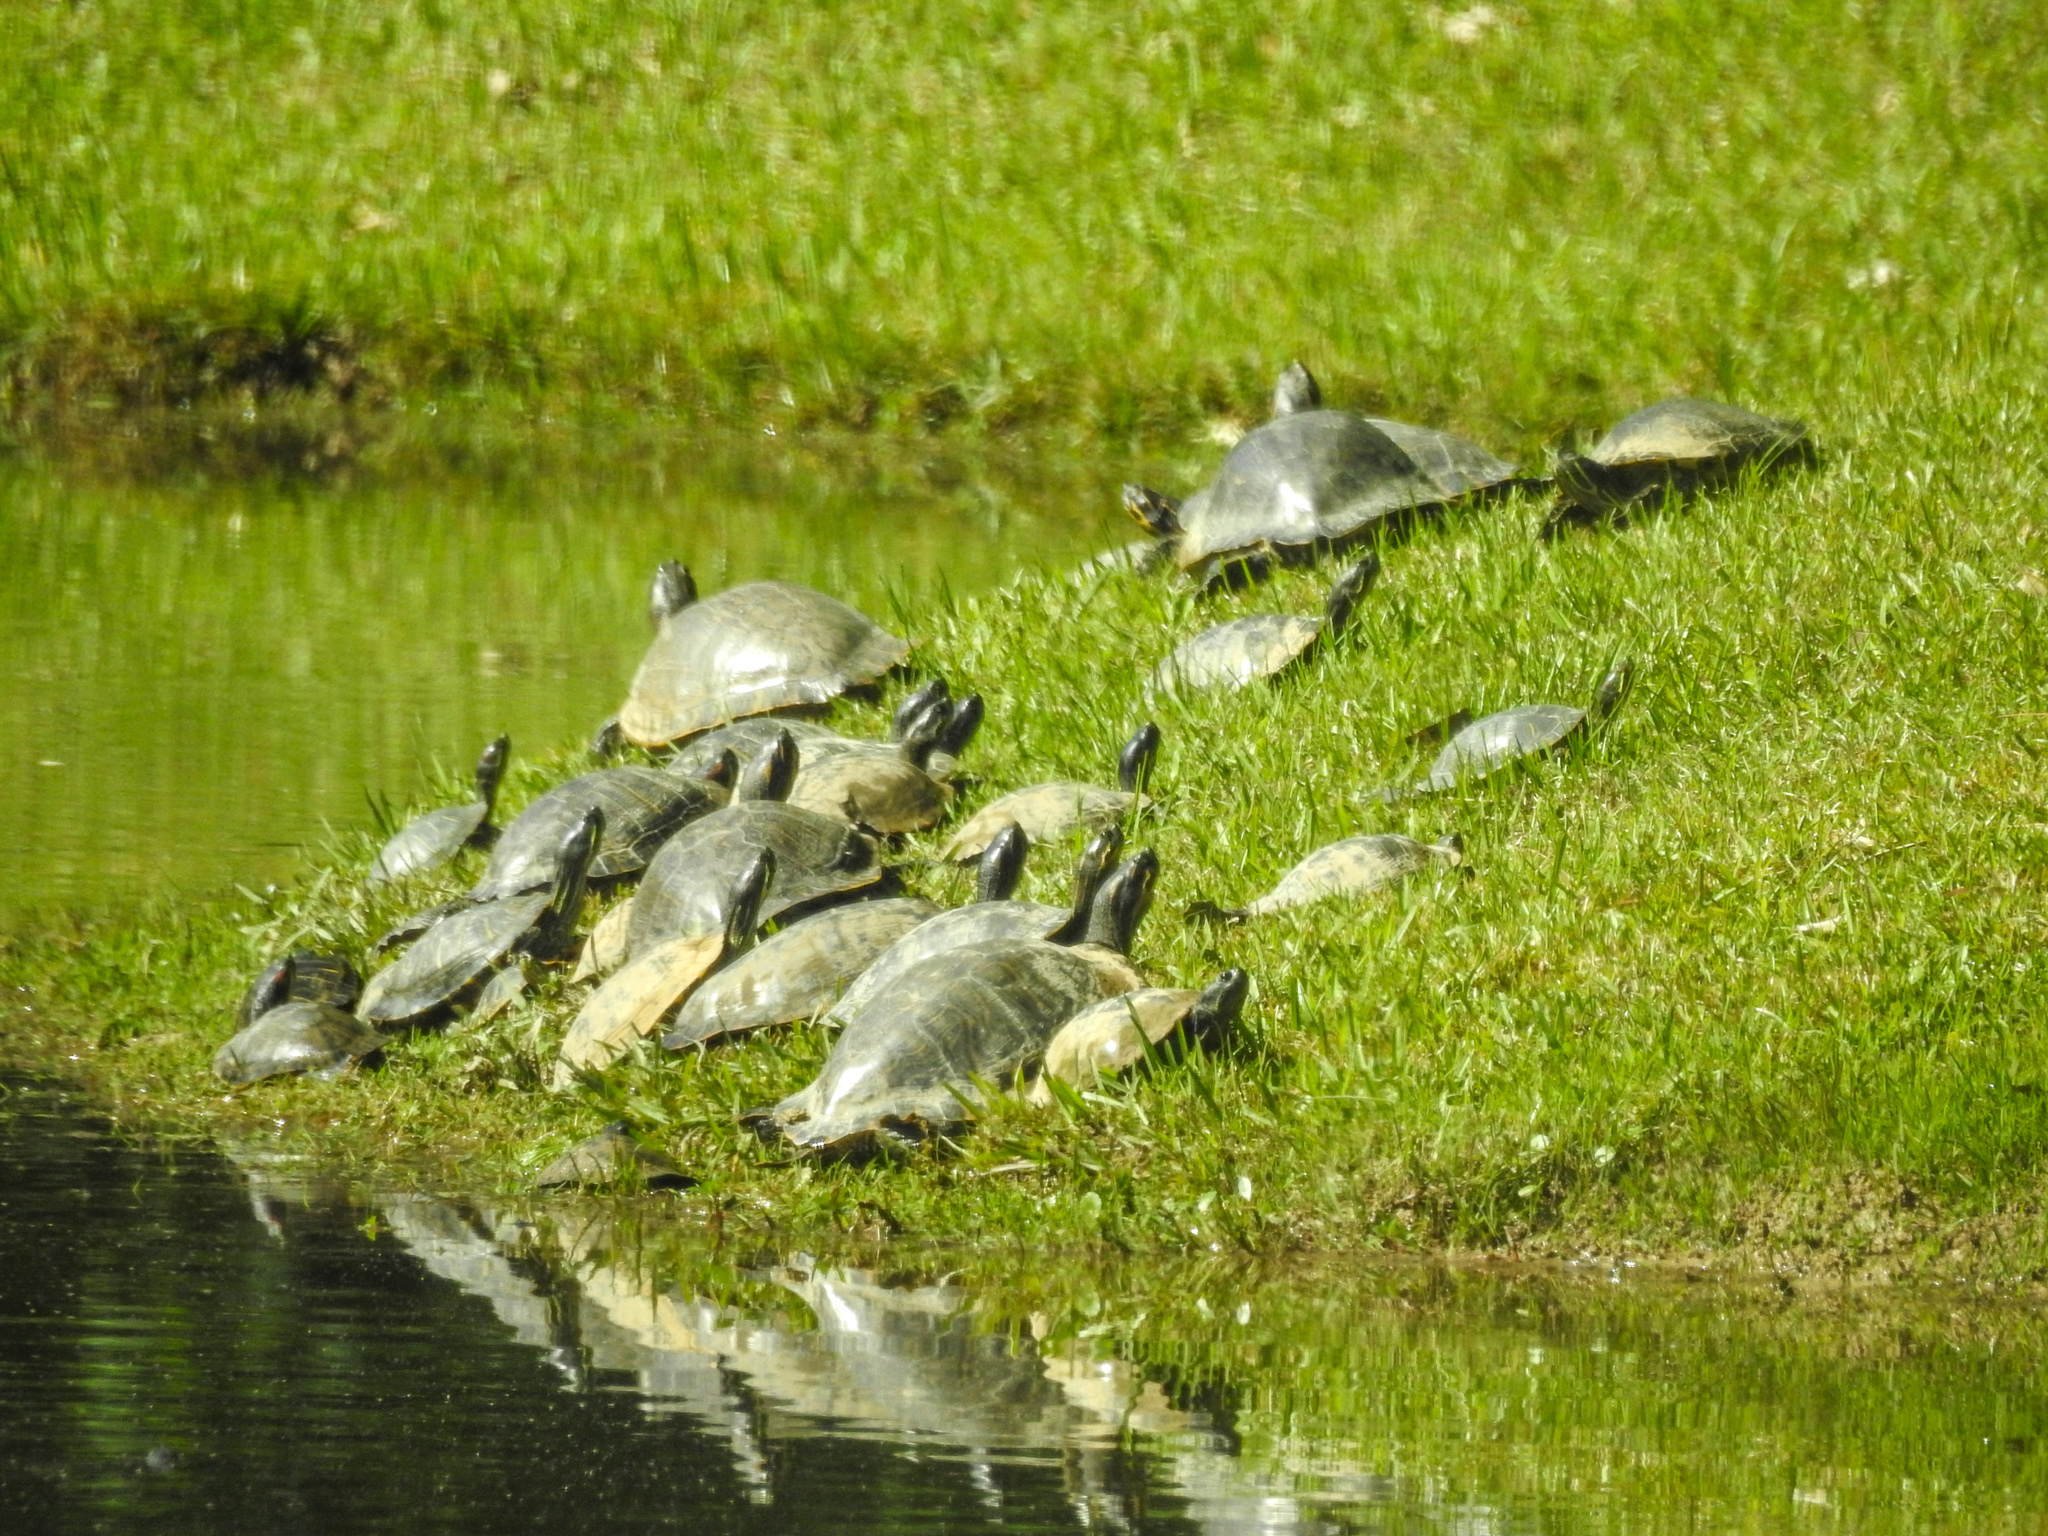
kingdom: Animalia
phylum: Chordata
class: Testudines
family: Emydidae
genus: Trachemys
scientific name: Trachemys scripta
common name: Slider
